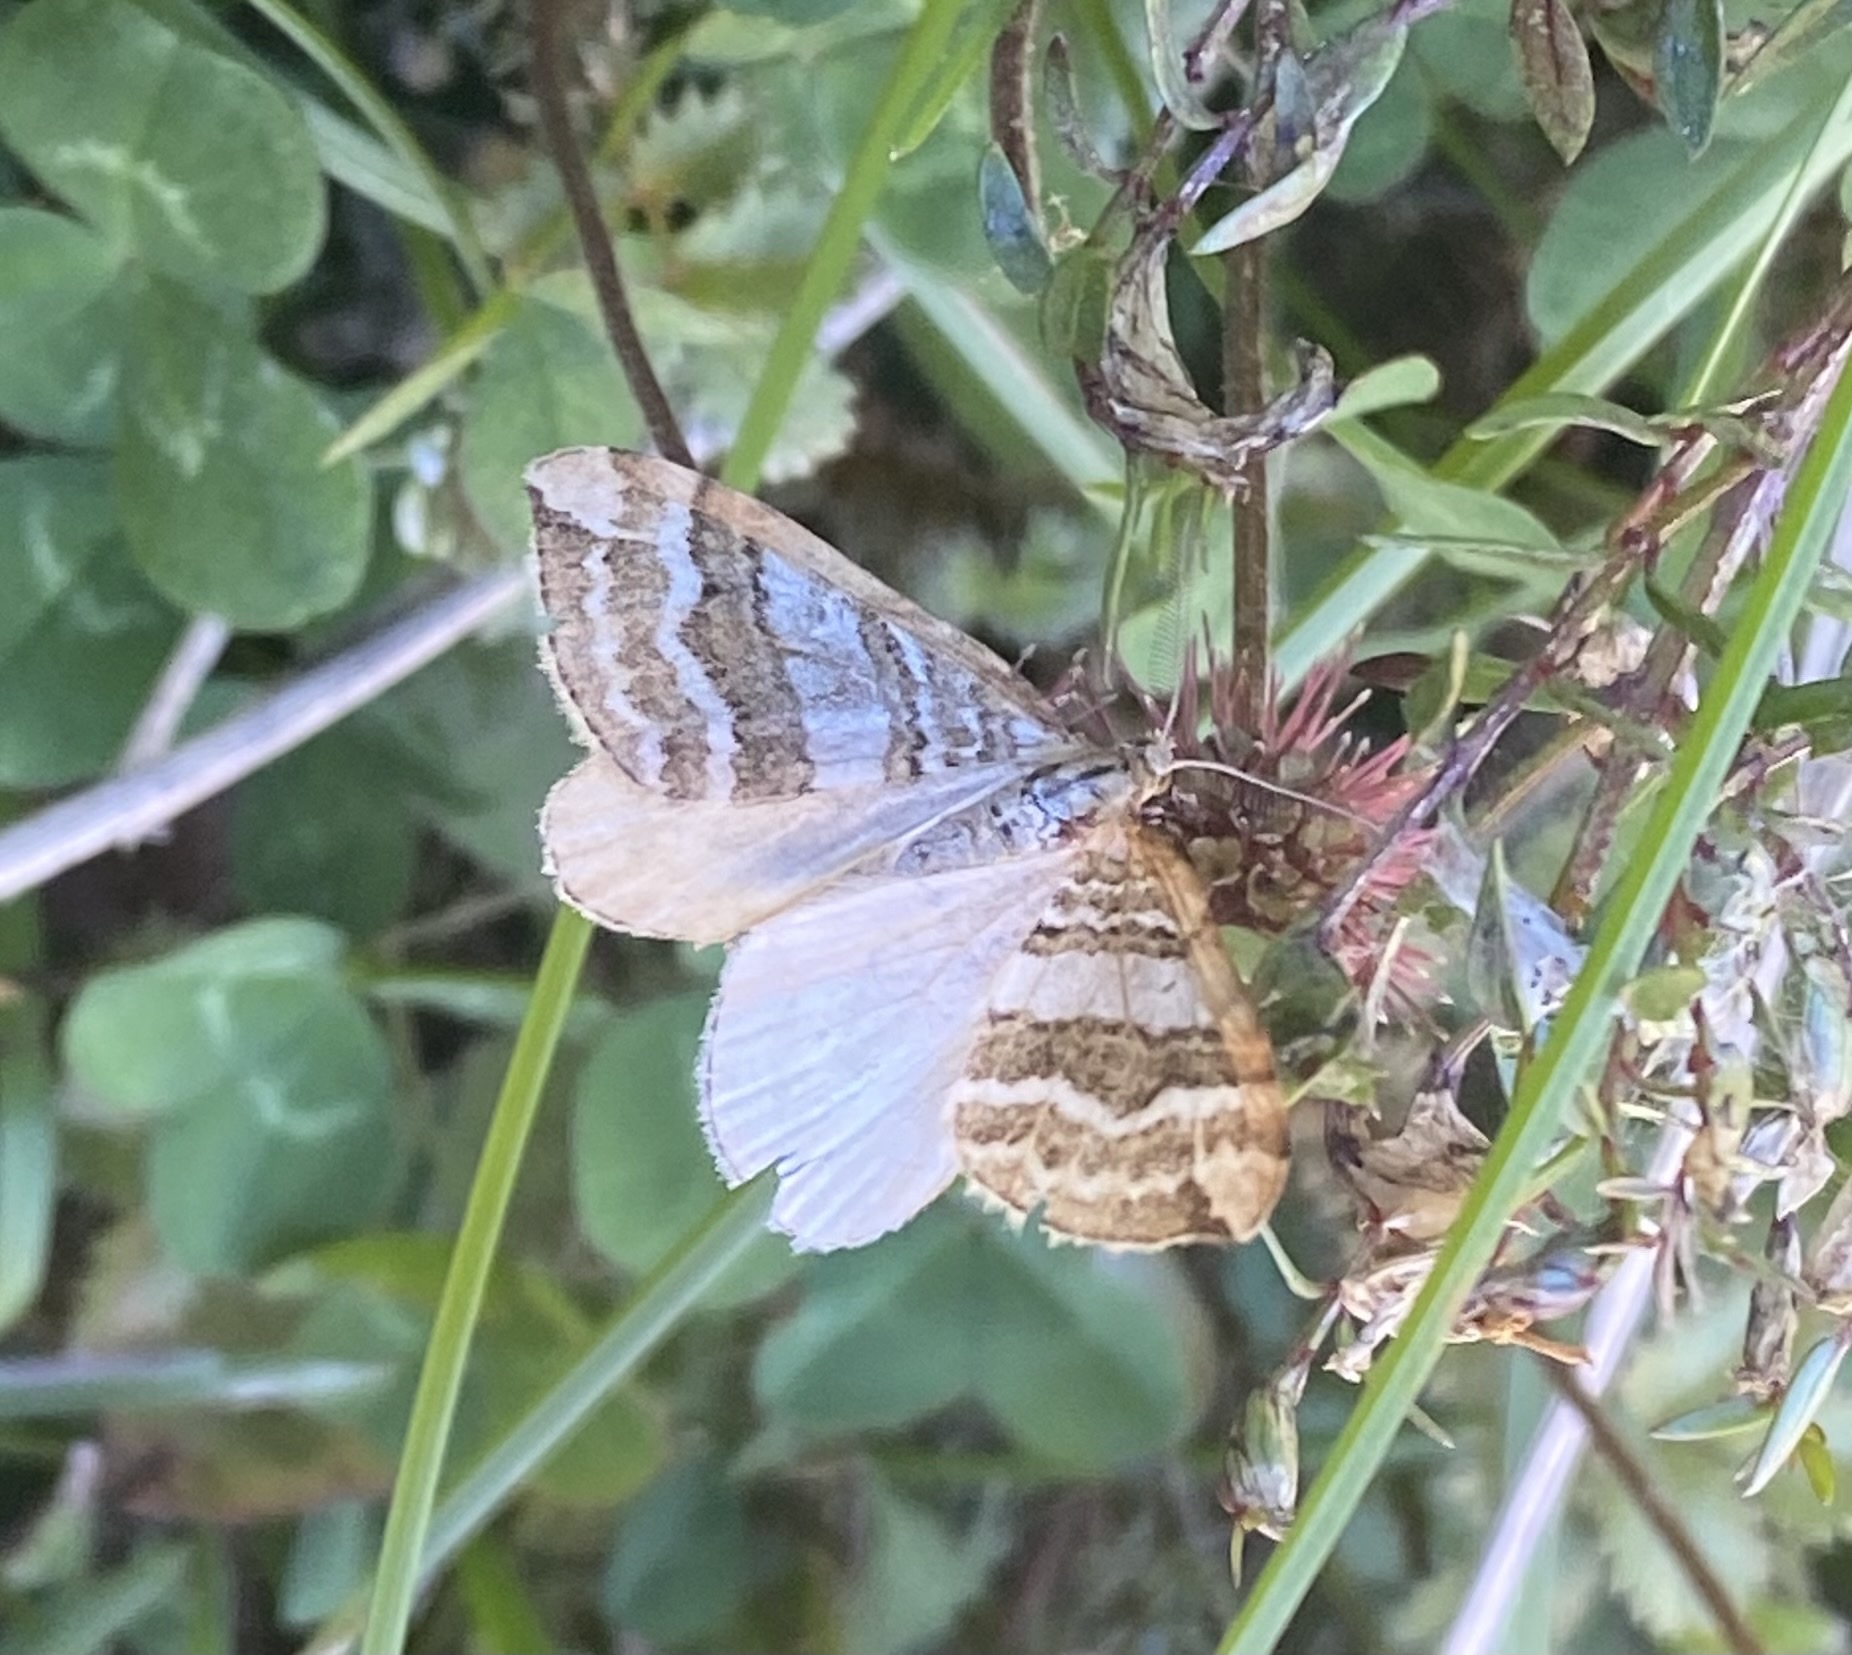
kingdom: Animalia
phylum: Arthropoda
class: Insecta
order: Lepidoptera
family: Geometridae
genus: Asaphodes
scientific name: Asaphodes cataphracta
